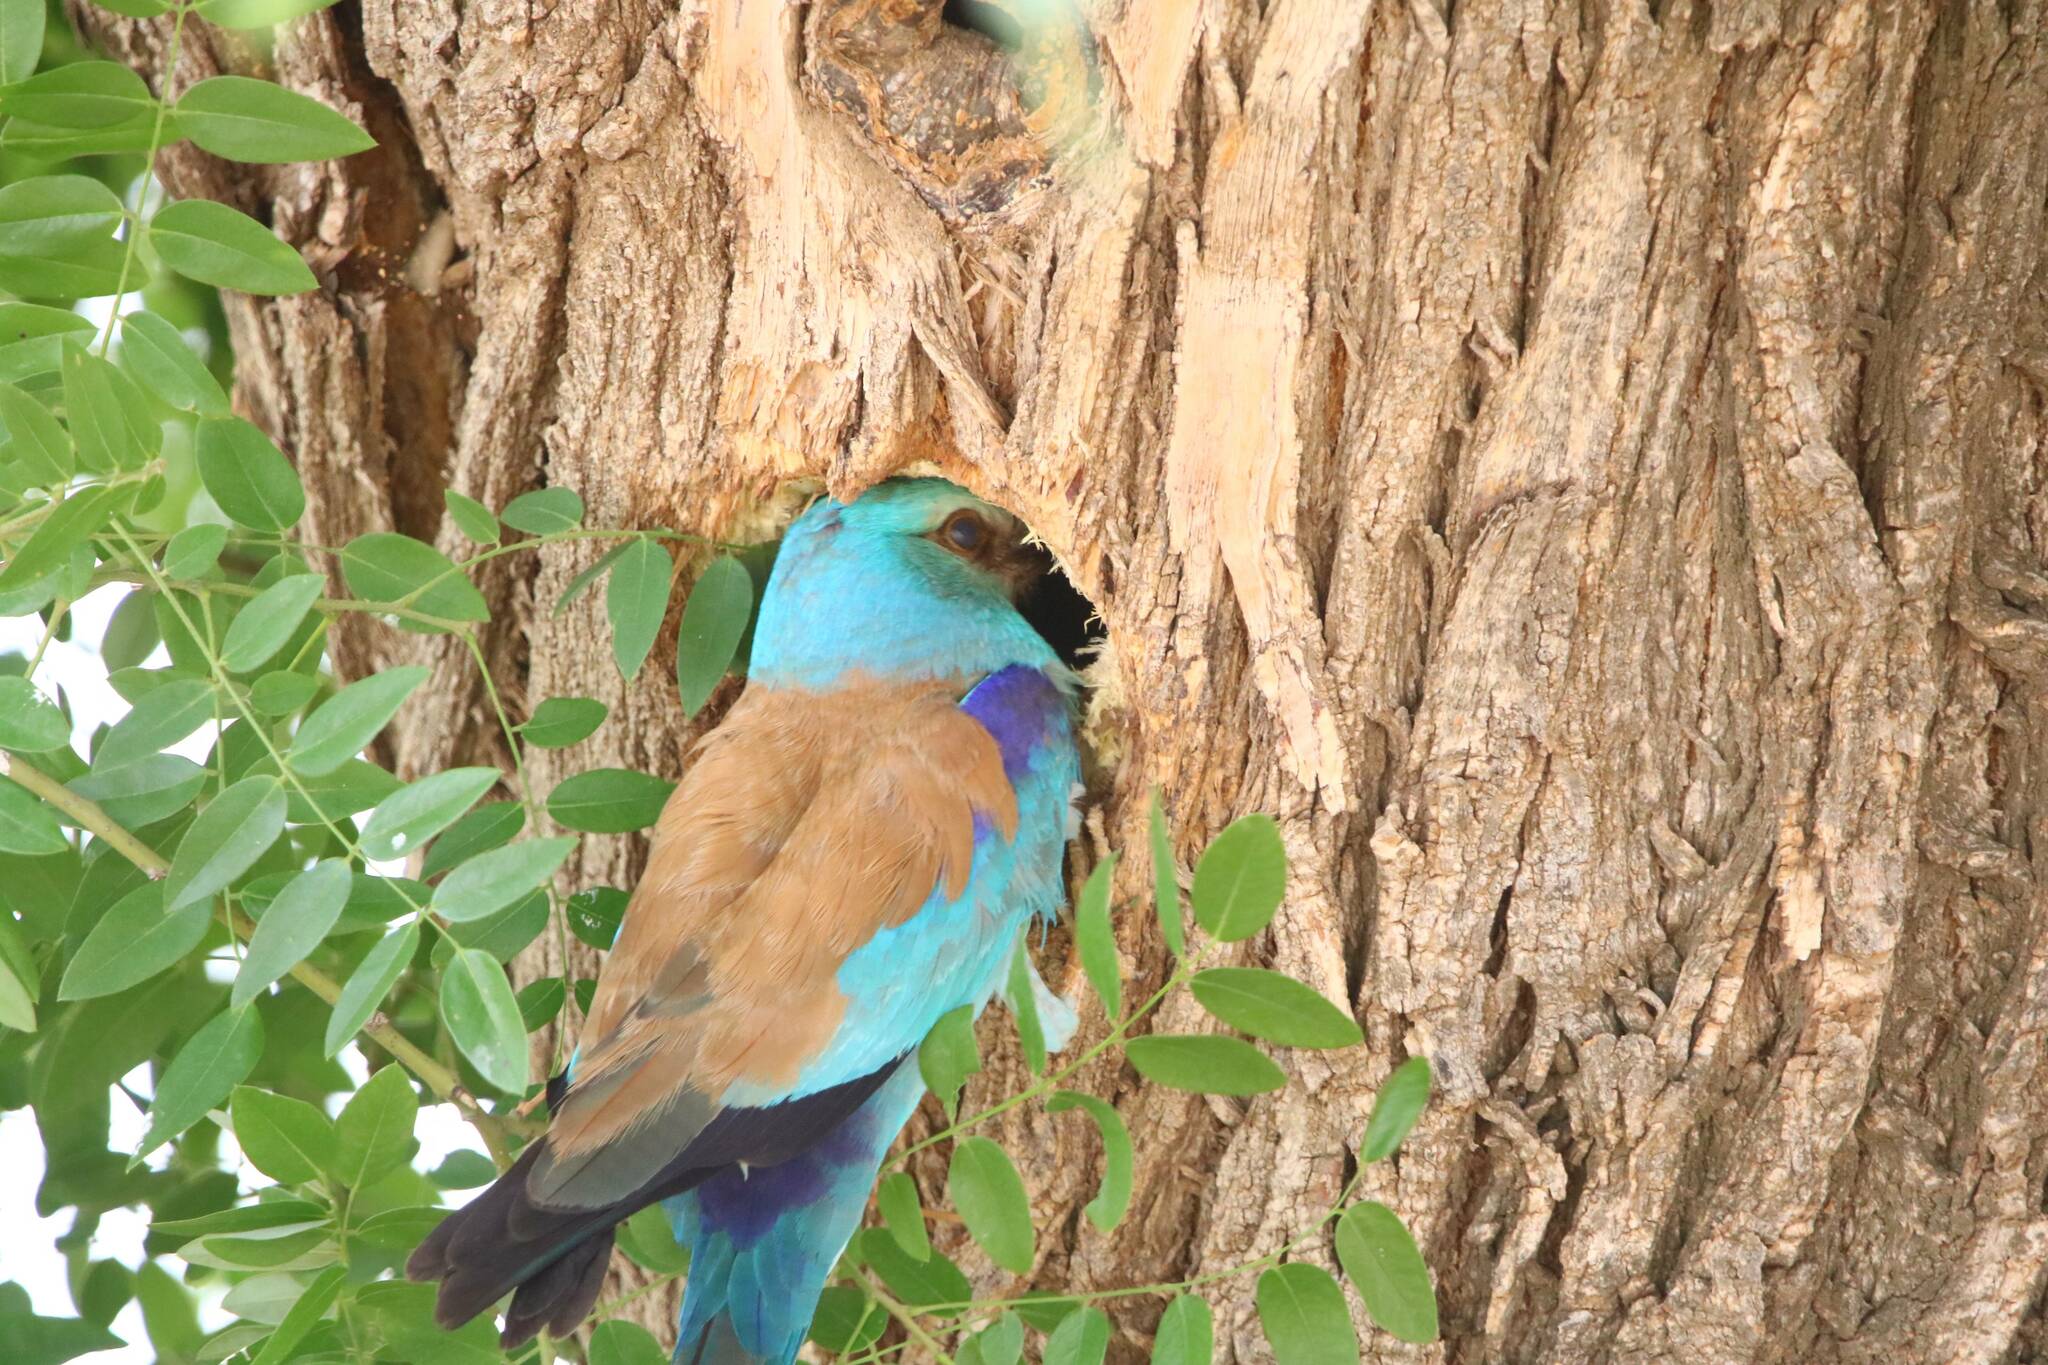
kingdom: Animalia
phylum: Chordata
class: Aves
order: Coraciiformes
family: Coraciidae
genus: Coracias
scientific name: Coracias garrulus
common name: European roller
